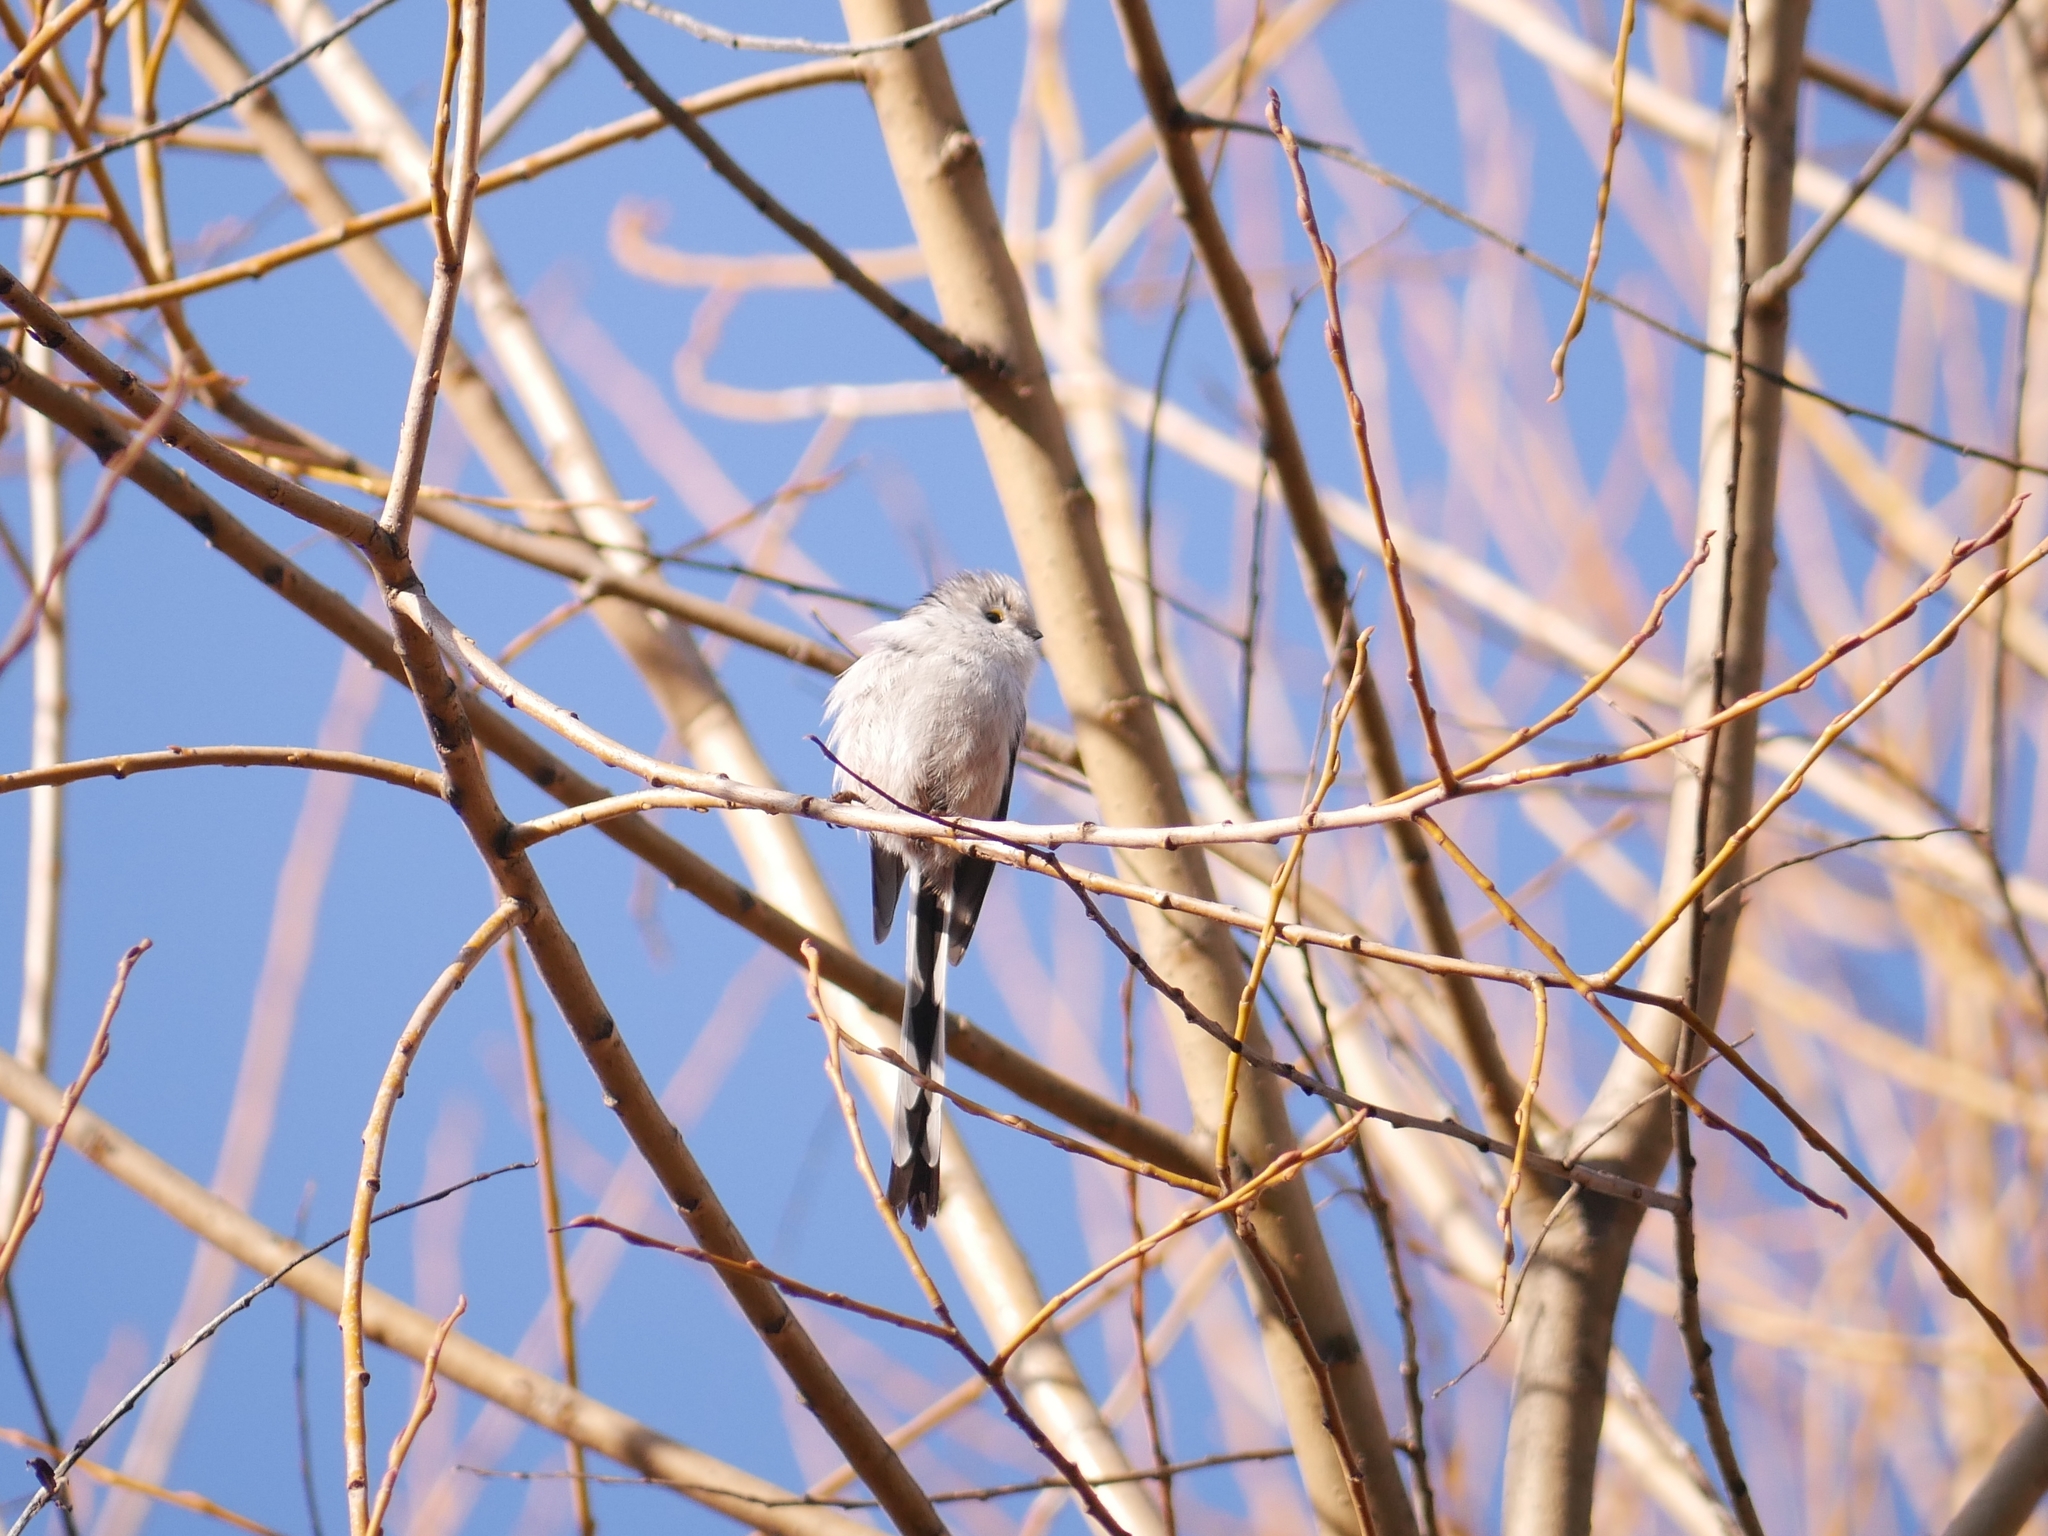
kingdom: Animalia
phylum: Chordata
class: Aves
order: Passeriformes
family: Aegithalidae
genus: Aegithalos
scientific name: Aegithalos caudatus
